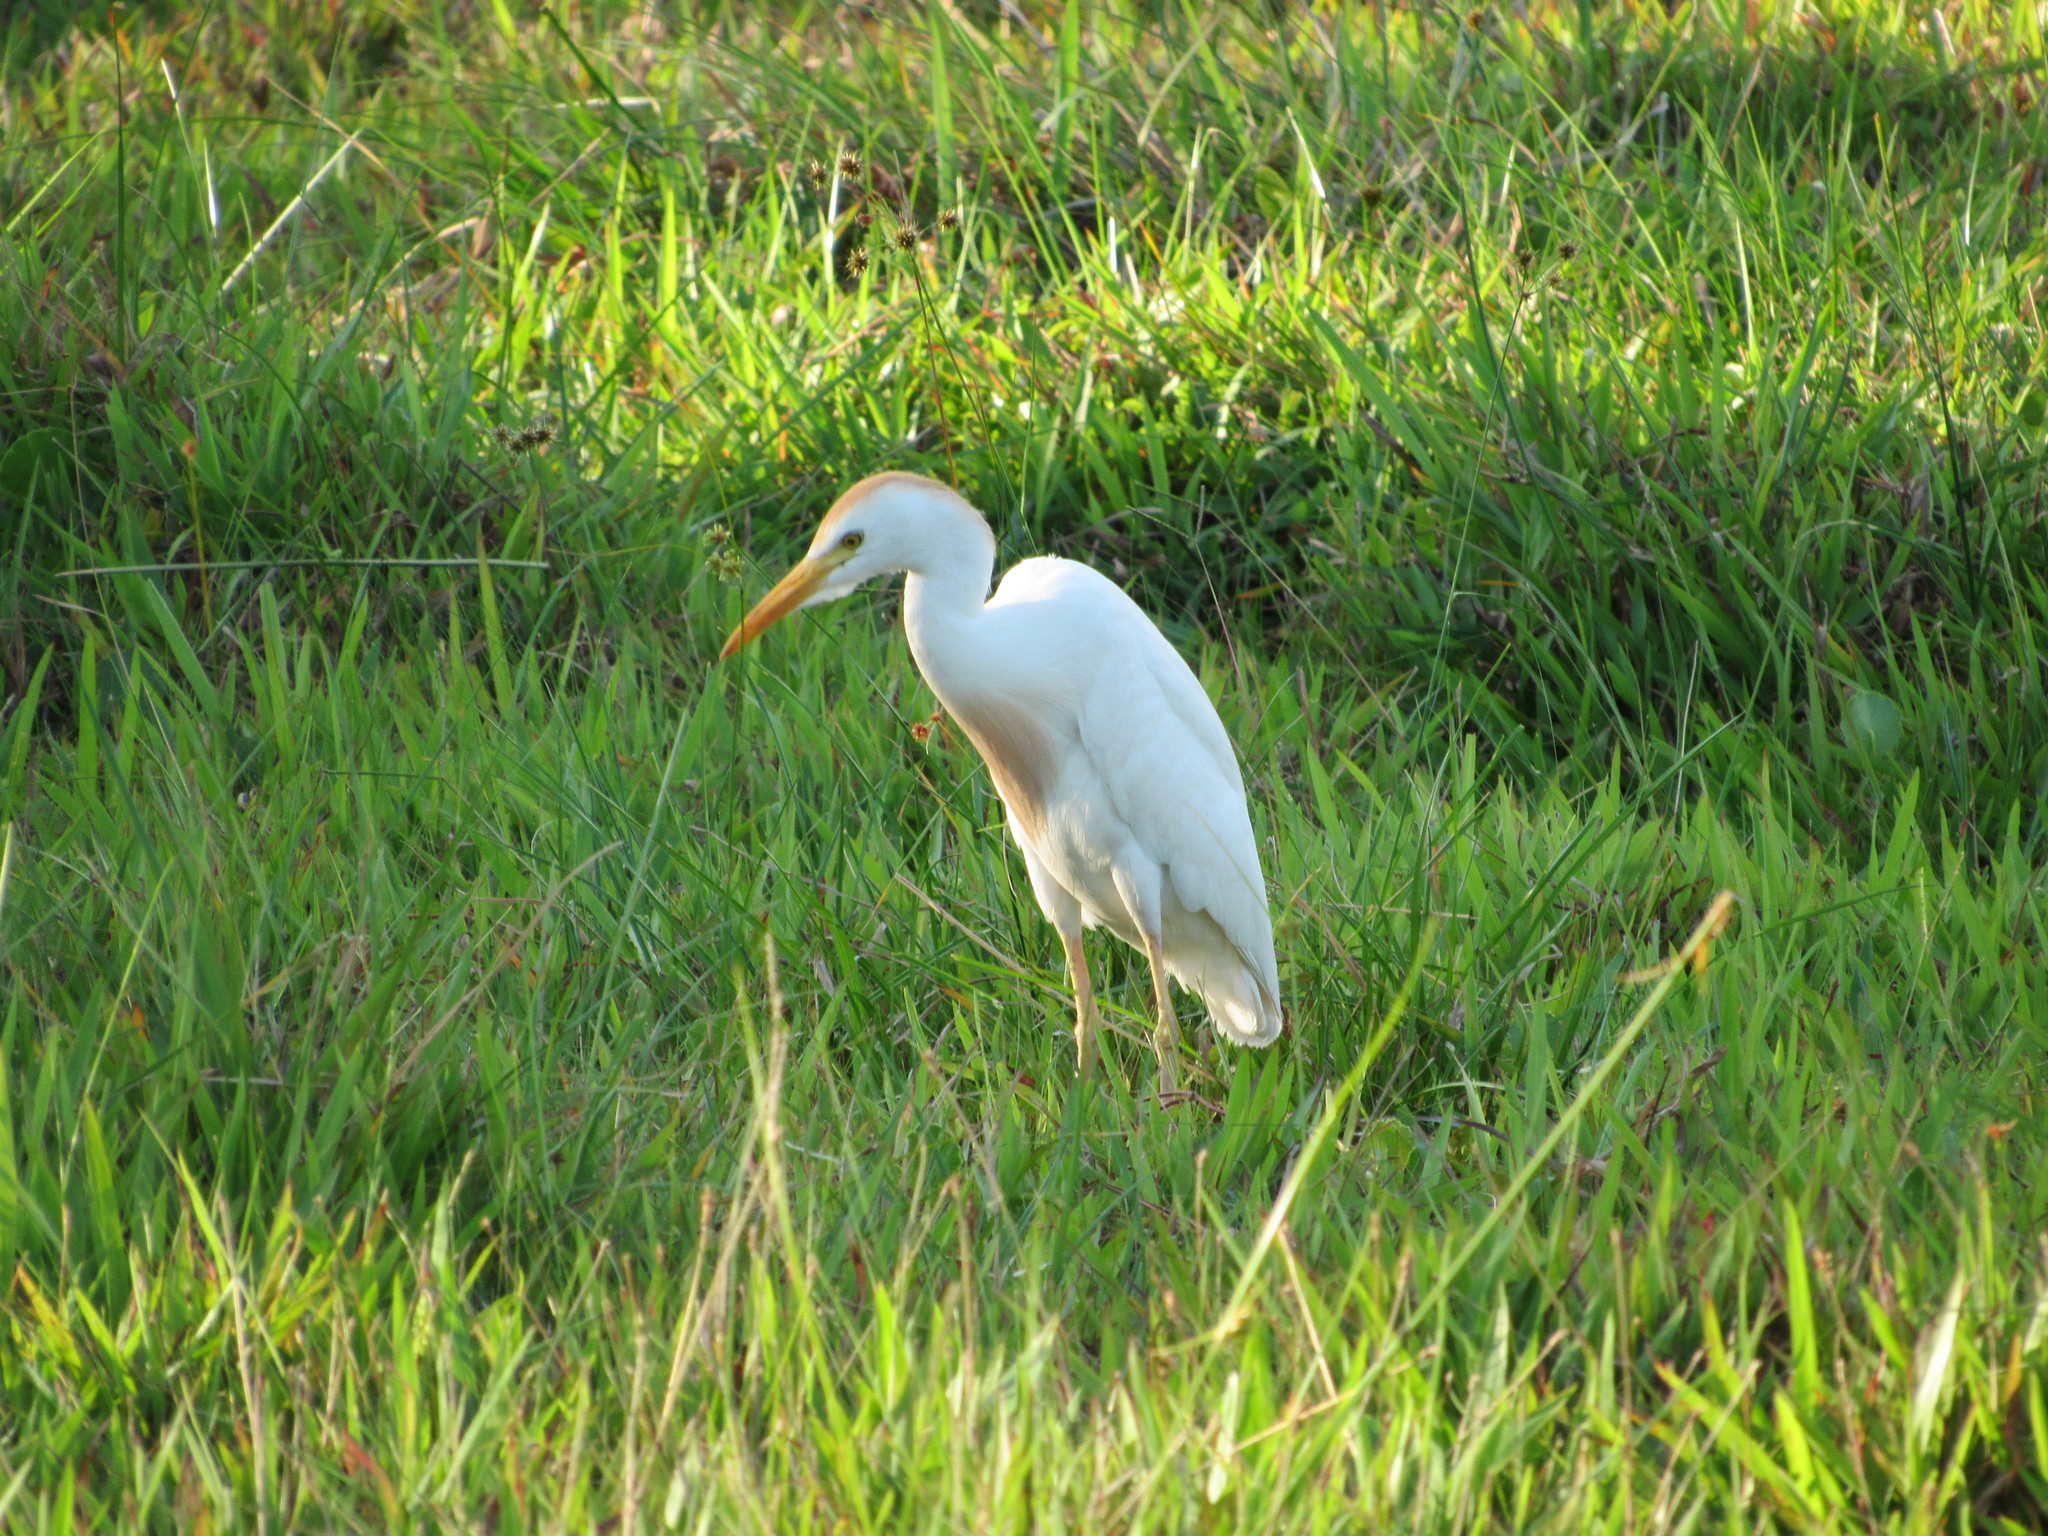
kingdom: Animalia
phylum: Chordata
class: Aves
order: Pelecaniformes
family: Ardeidae
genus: Bubulcus
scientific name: Bubulcus ibis
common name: Cattle egret
